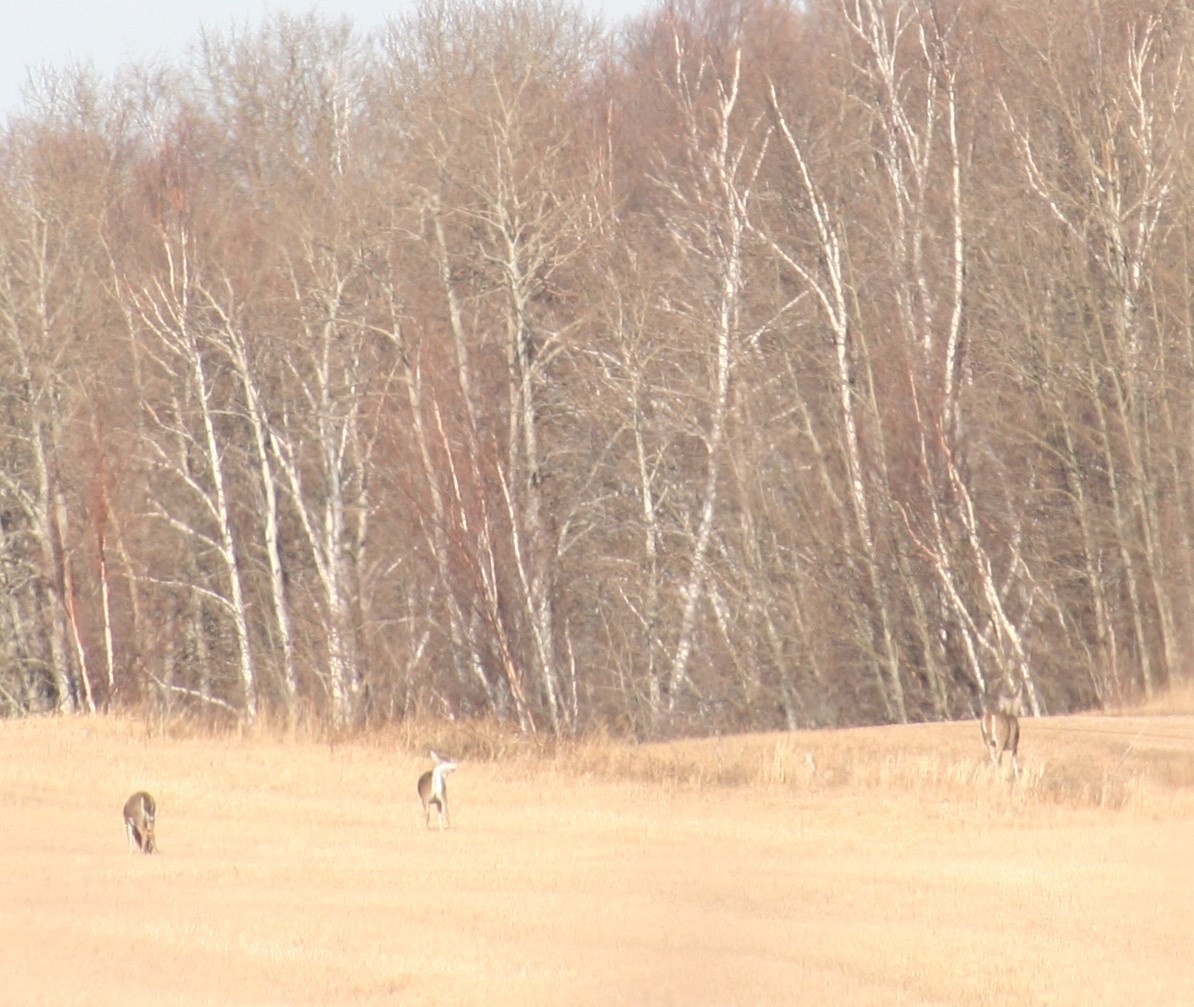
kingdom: Animalia
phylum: Chordata
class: Mammalia
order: Artiodactyla
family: Cervidae
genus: Odocoileus
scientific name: Odocoileus virginianus
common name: White-tailed deer
